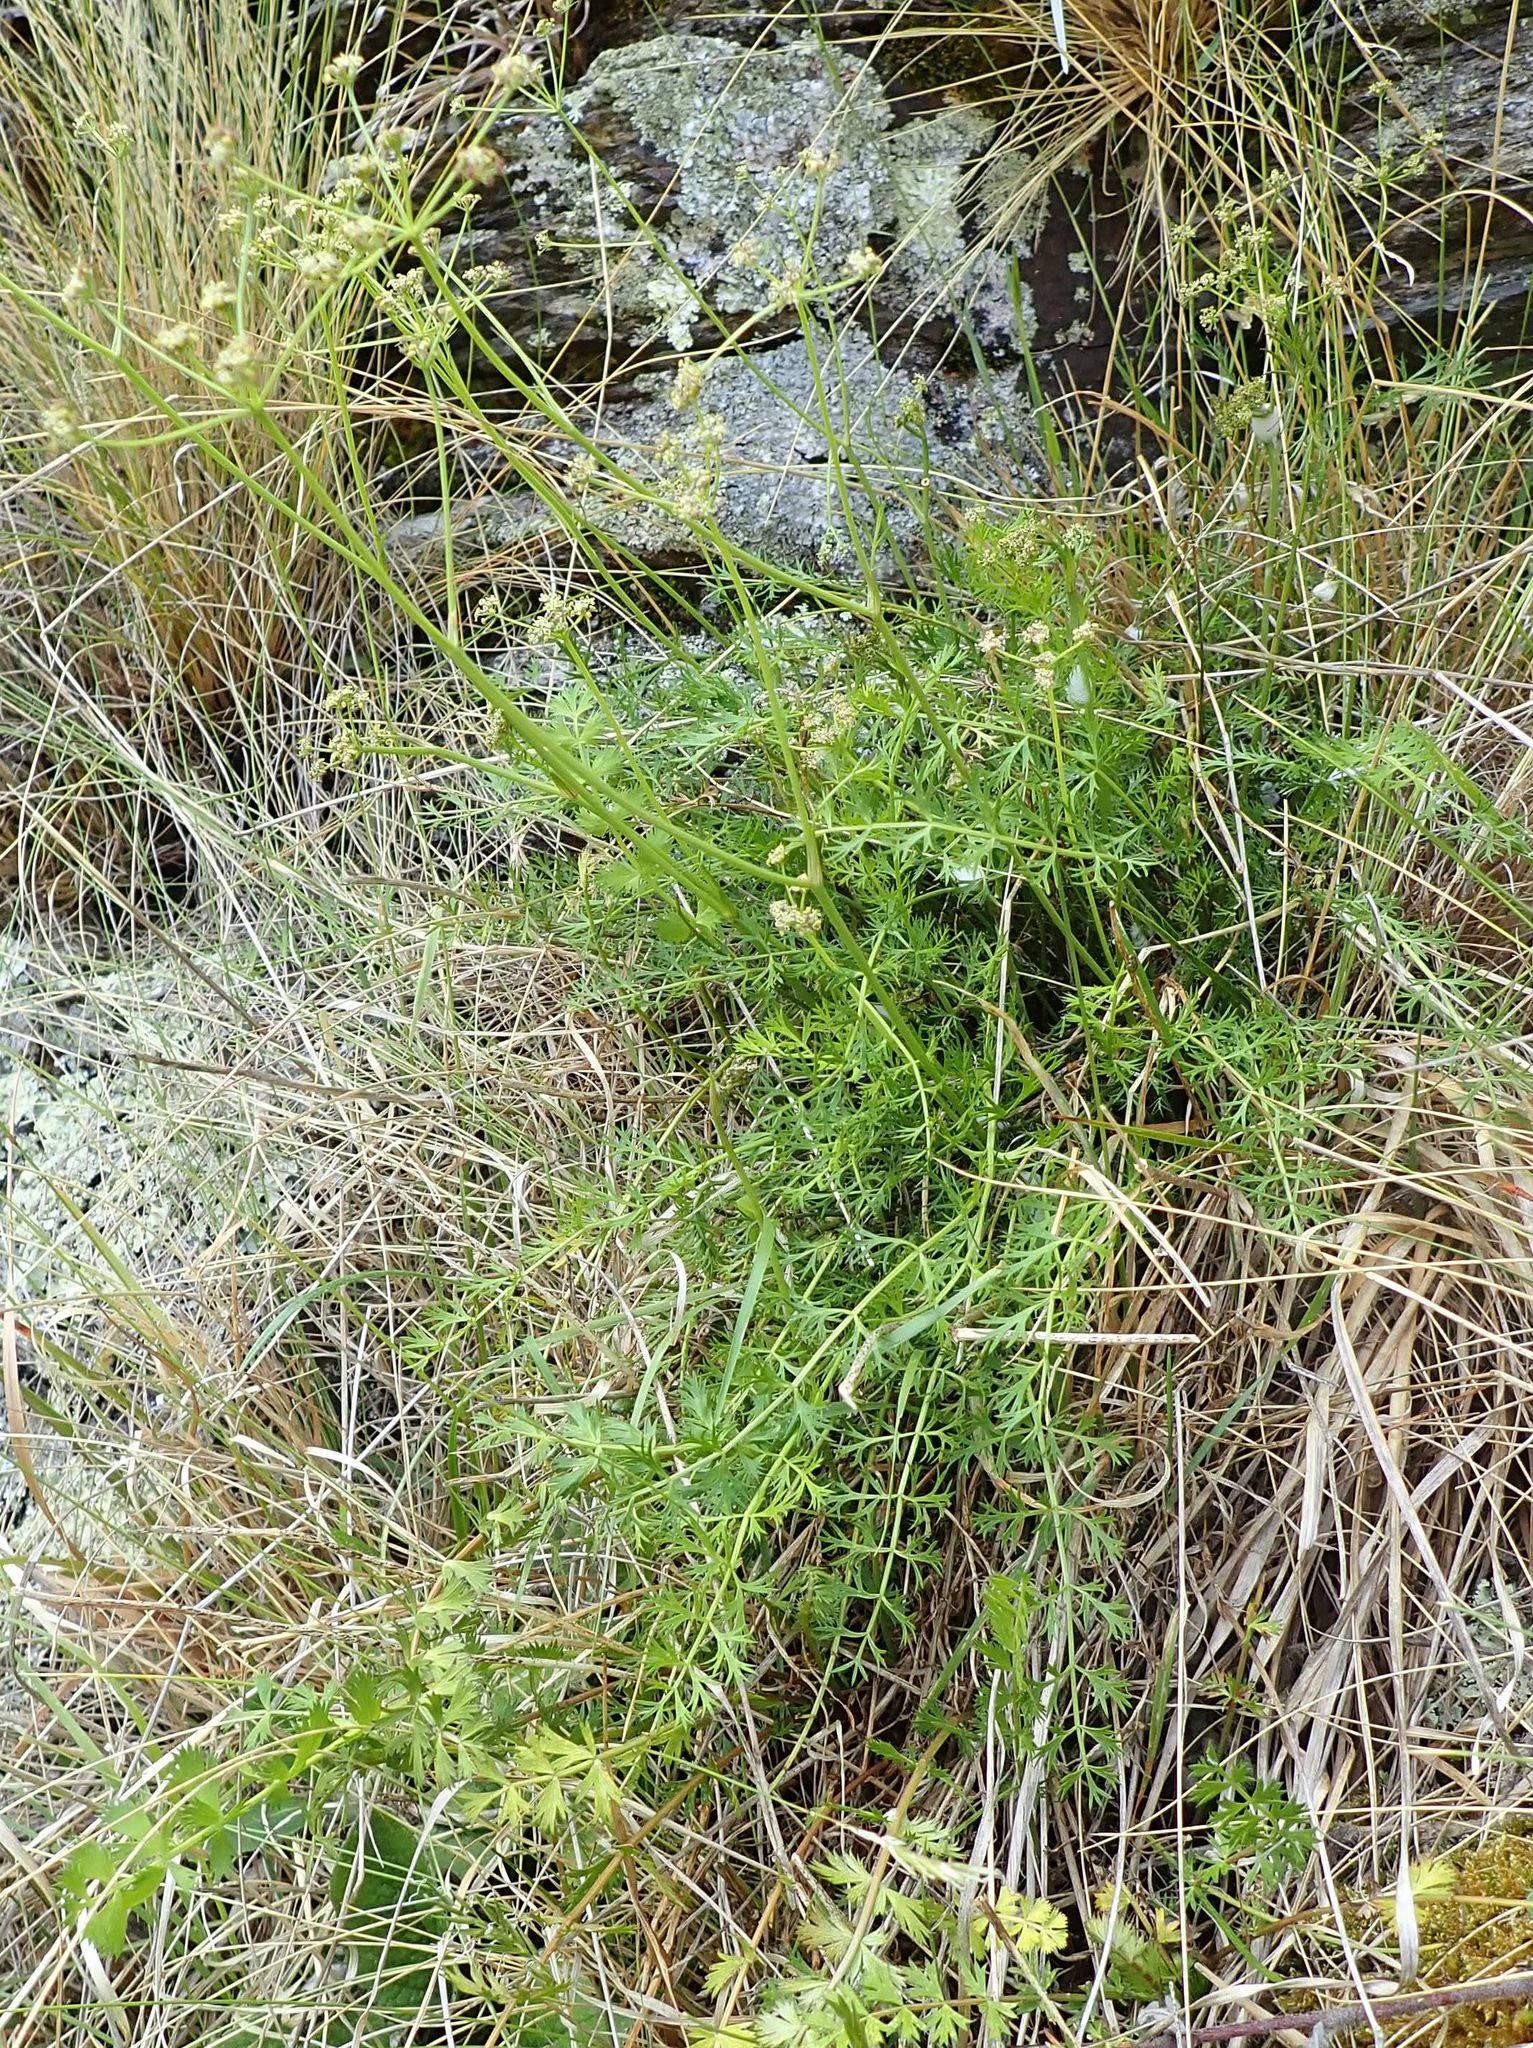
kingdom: Plantae
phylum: Tracheophyta
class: Magnoliopsida
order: Apiales
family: Apiaceae
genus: Anisotome
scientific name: Anisotome aromatica
